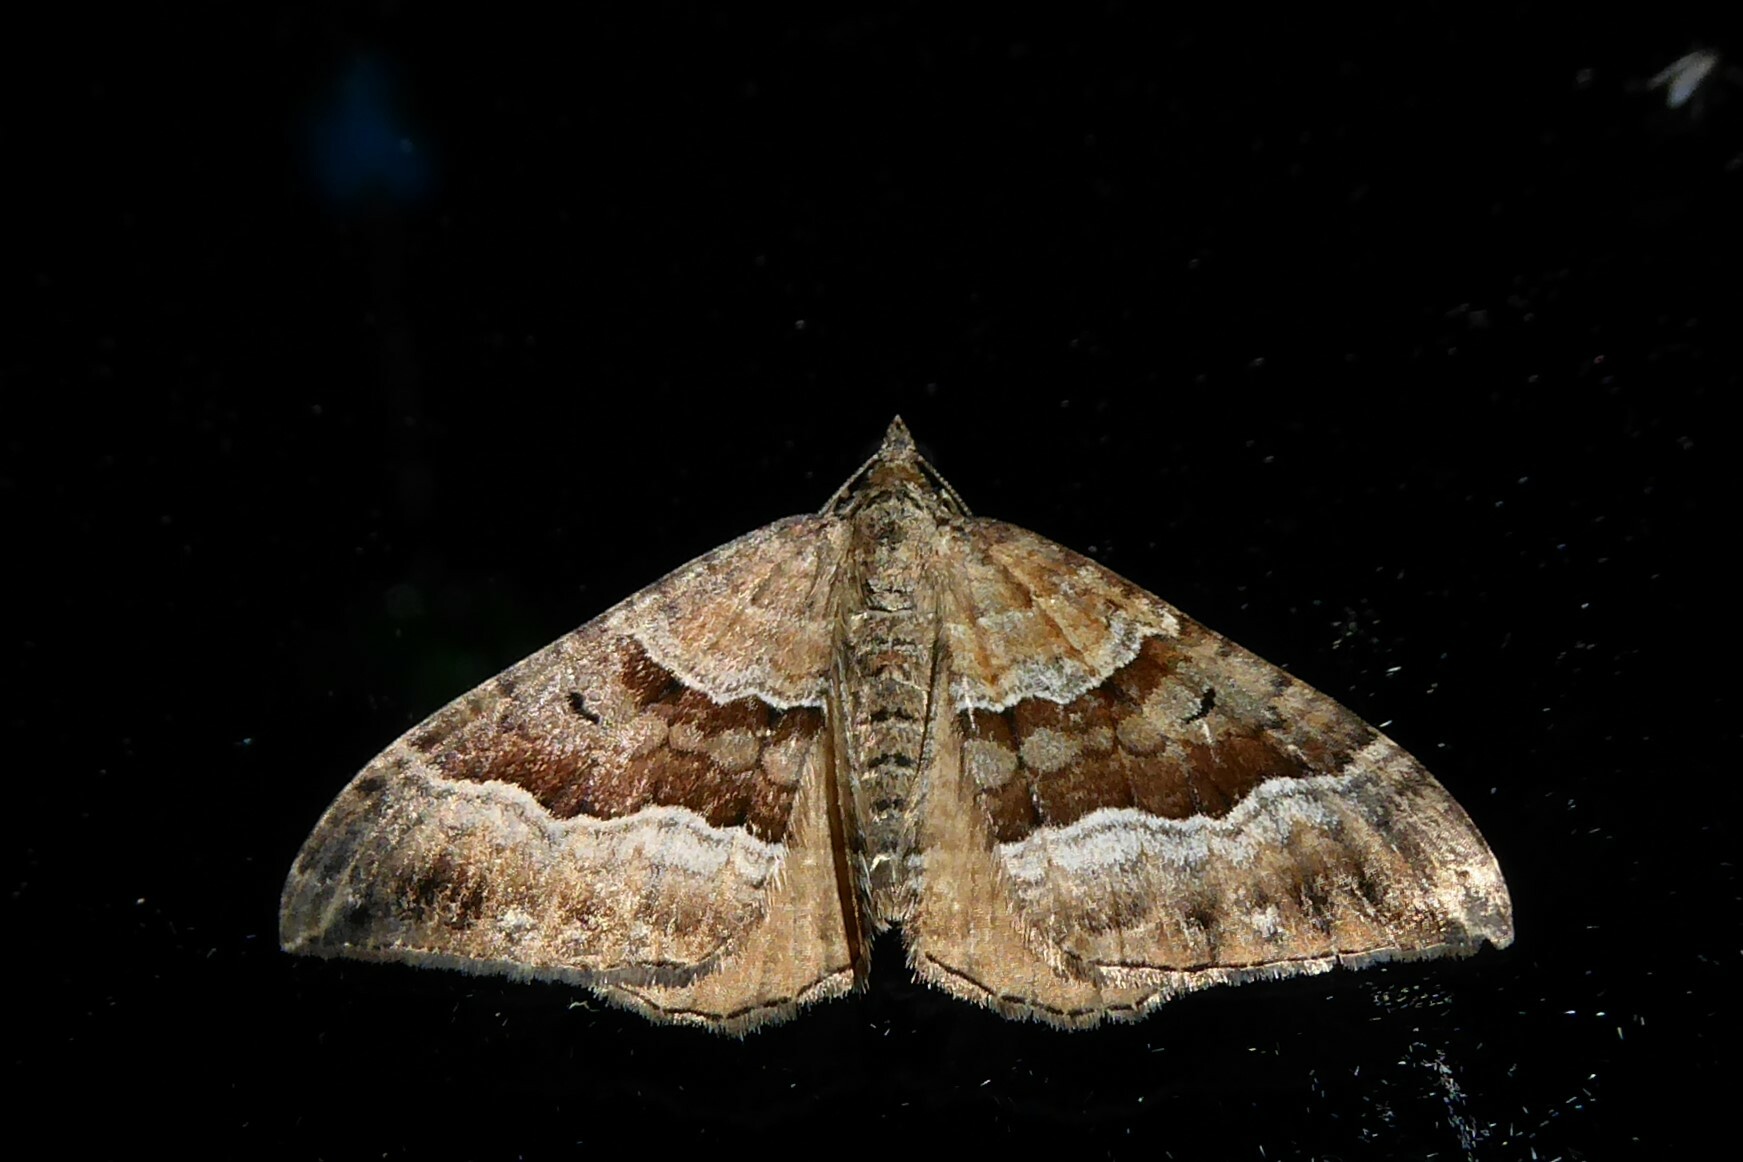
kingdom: Animalia
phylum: Arthropoda
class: Insecta
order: Lepidoptera
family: Geometridae
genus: Hydriomena
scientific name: Hydriomena deltoidata
